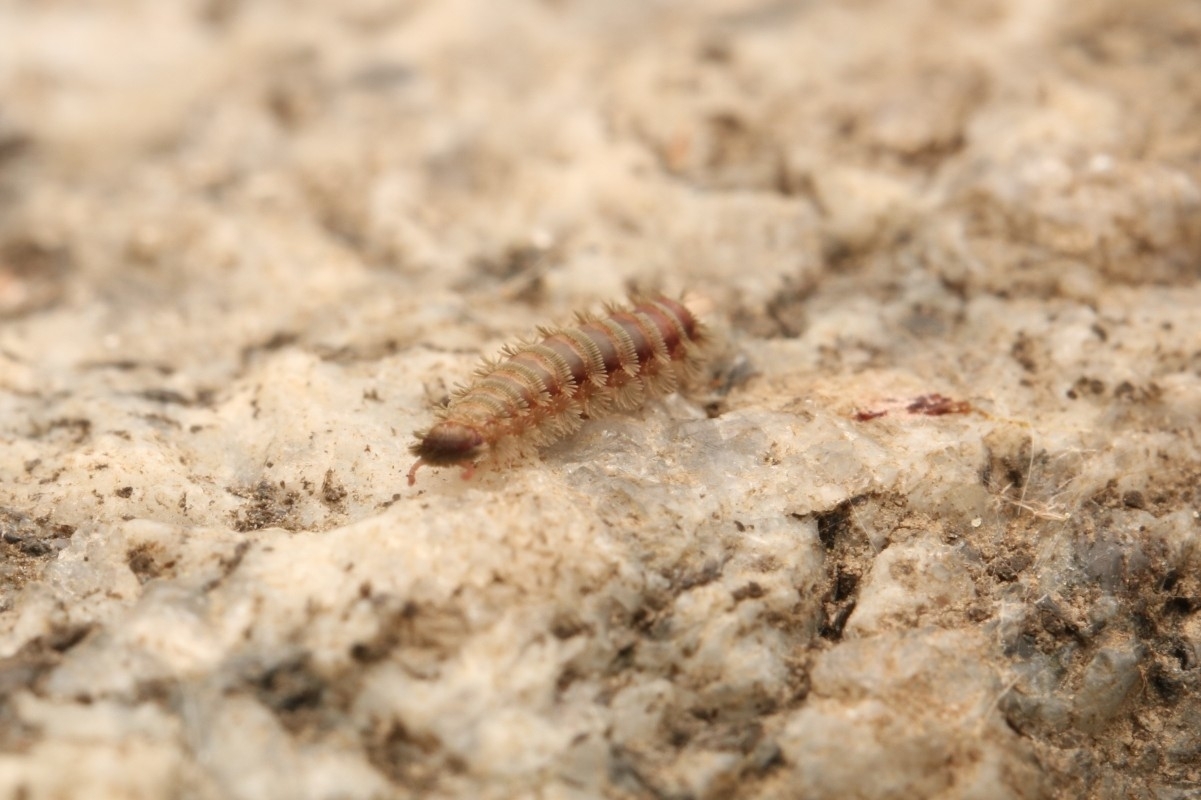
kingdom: Animalia
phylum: Arthropoda
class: Diplopoda
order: Polyxenida
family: Polyxenidae
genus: Polyxenus
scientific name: Polyxenus lagurus
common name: Bristly millipede
